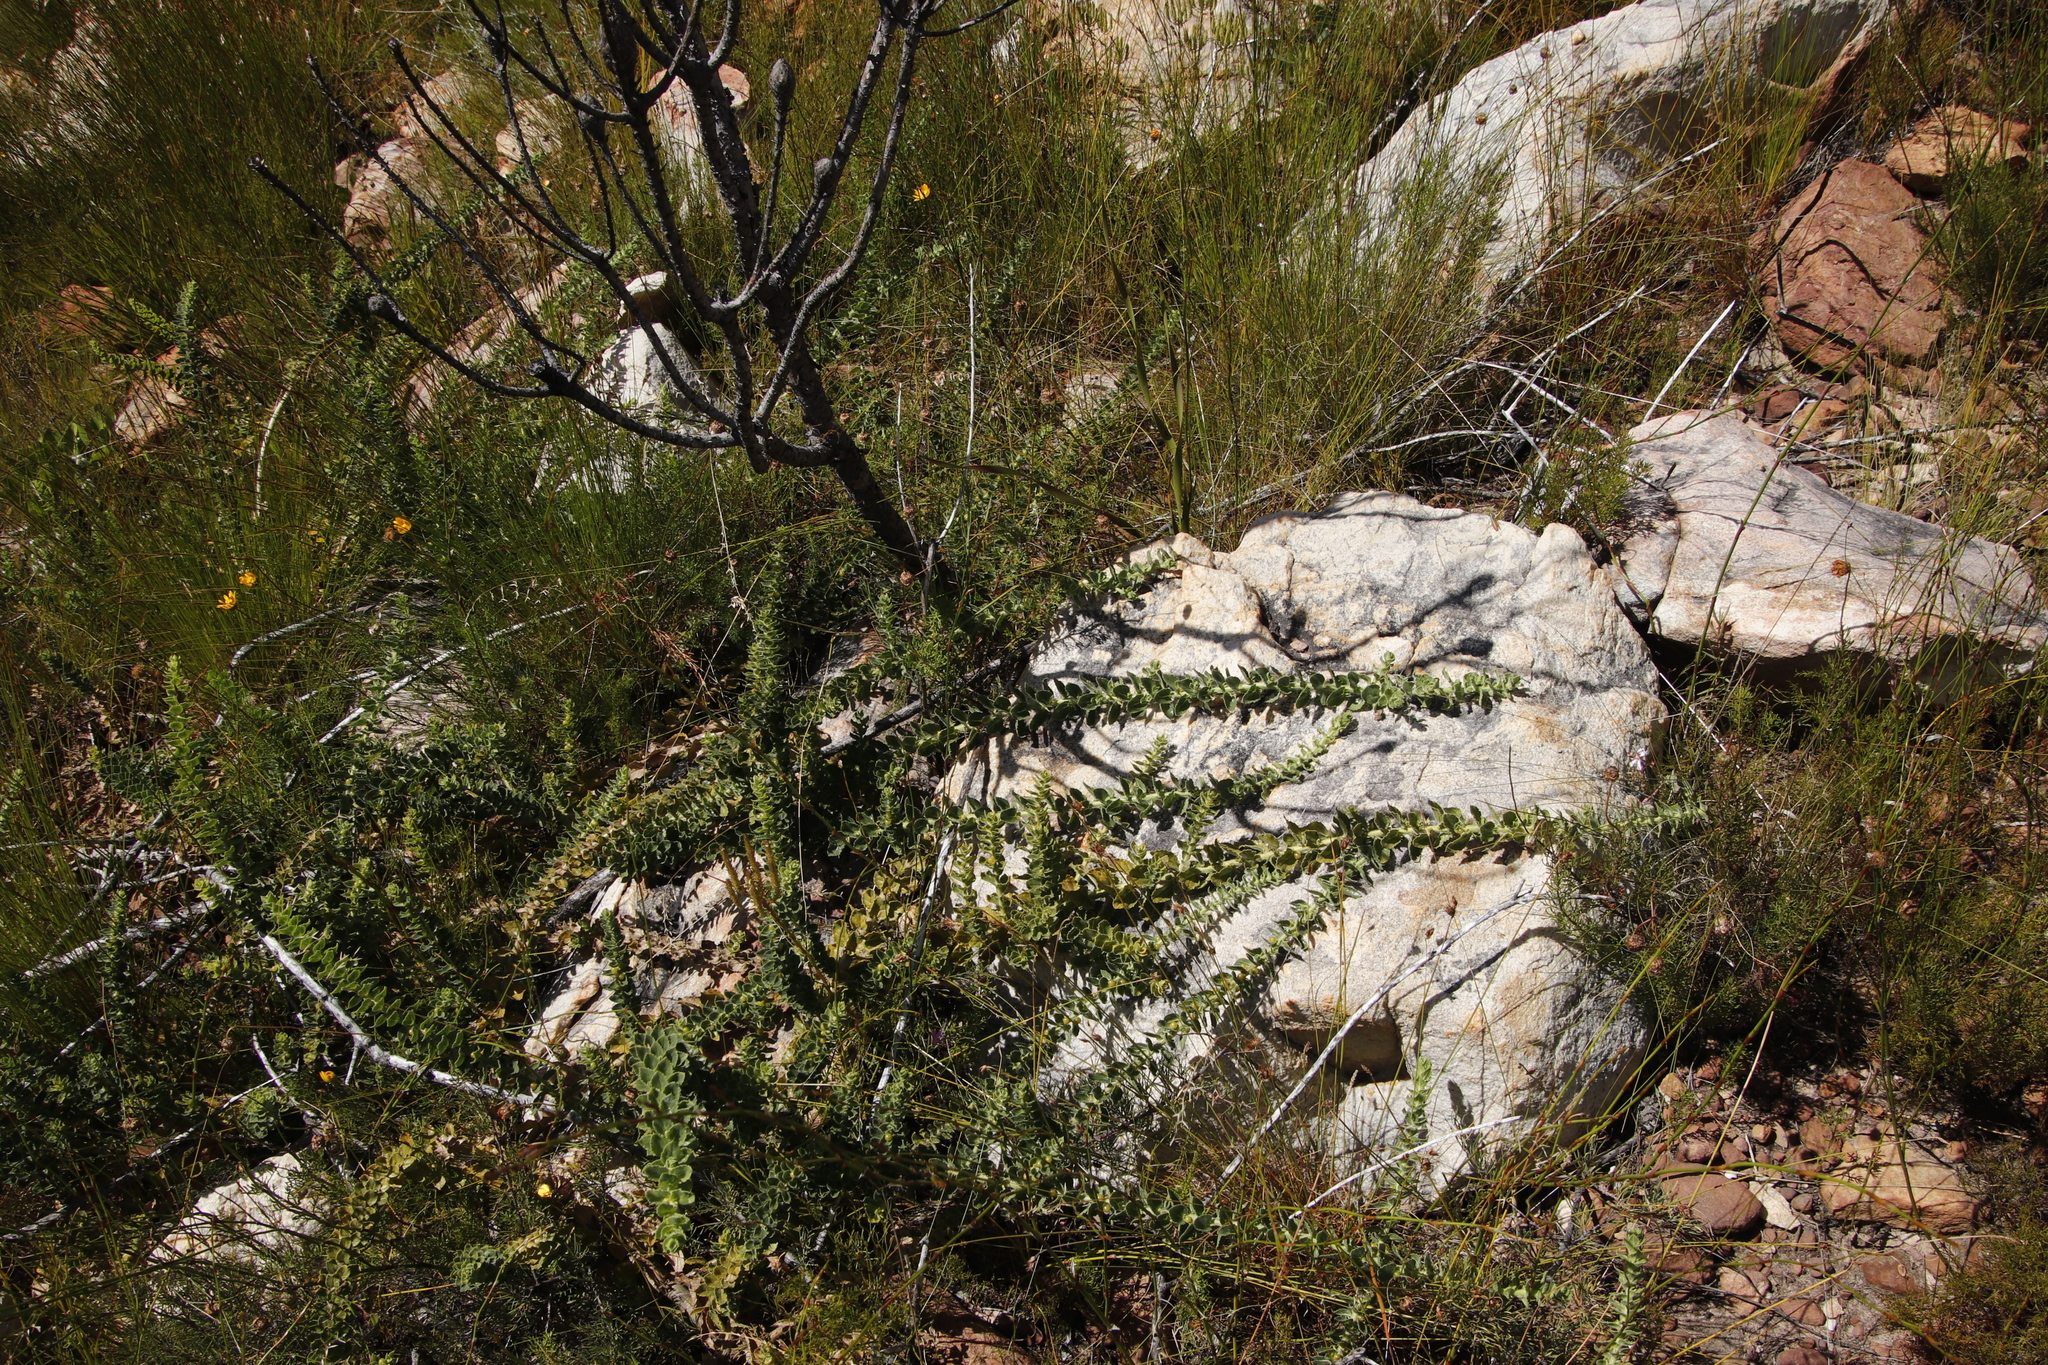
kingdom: Plantae
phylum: Tracheophyta
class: Magnoliopsida
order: Lamiales
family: Scrophulariaceae
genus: Oftia
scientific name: Oftia africana
